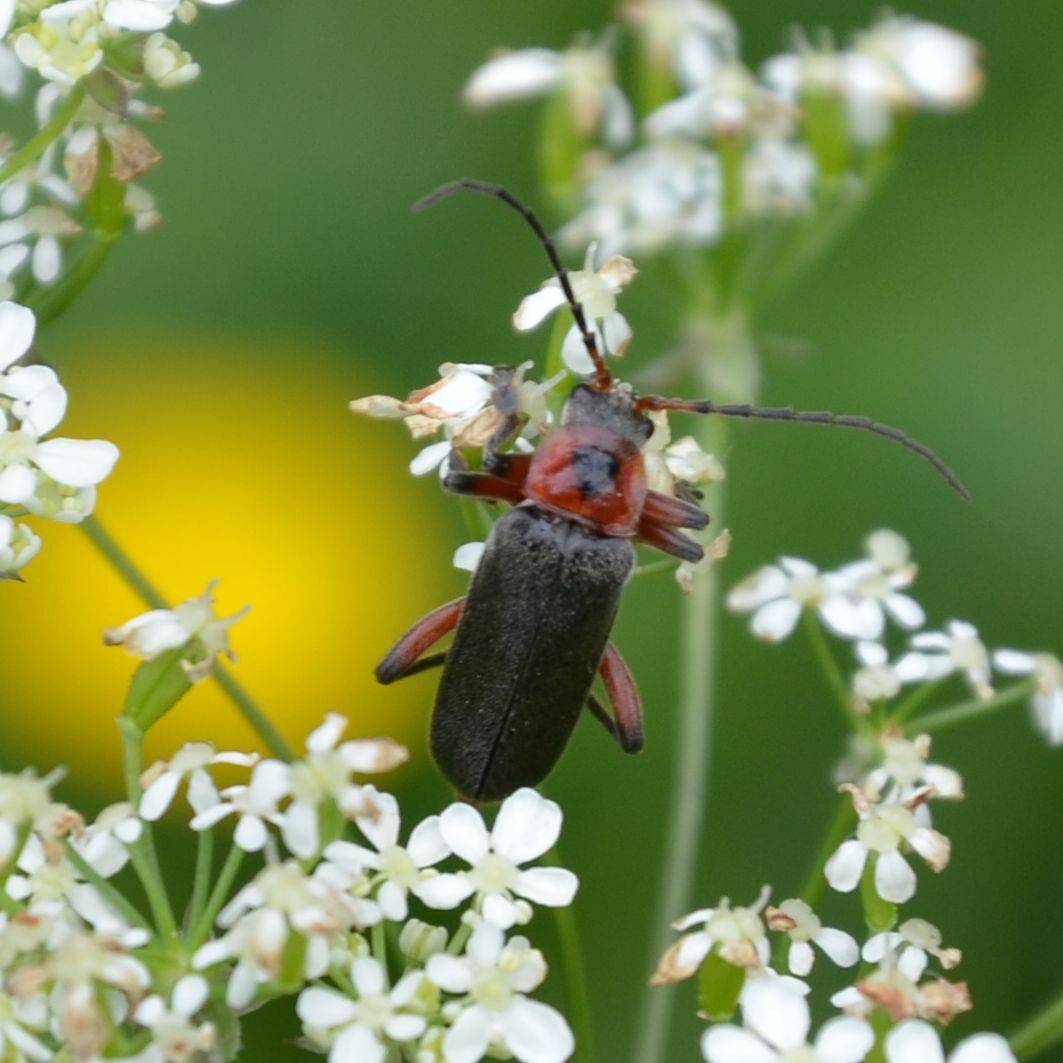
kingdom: Animalia
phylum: Arthropoda
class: Insecta
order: Coleoptera
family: Cantharidae
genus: Cantharis
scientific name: Cantharis rustica
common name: Soldier beetle
